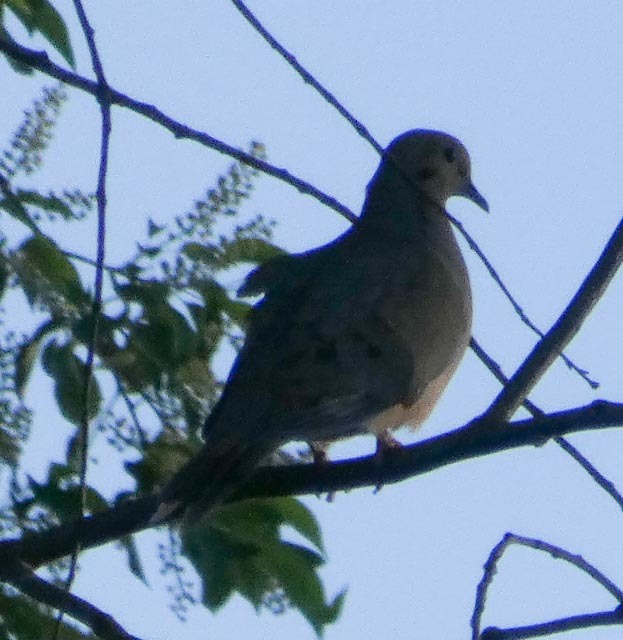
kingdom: Animalia
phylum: Chordata
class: Aves
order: Columbiformes
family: Columbidae
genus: Zenaida
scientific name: Zenaida macroura
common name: Mourning dove
